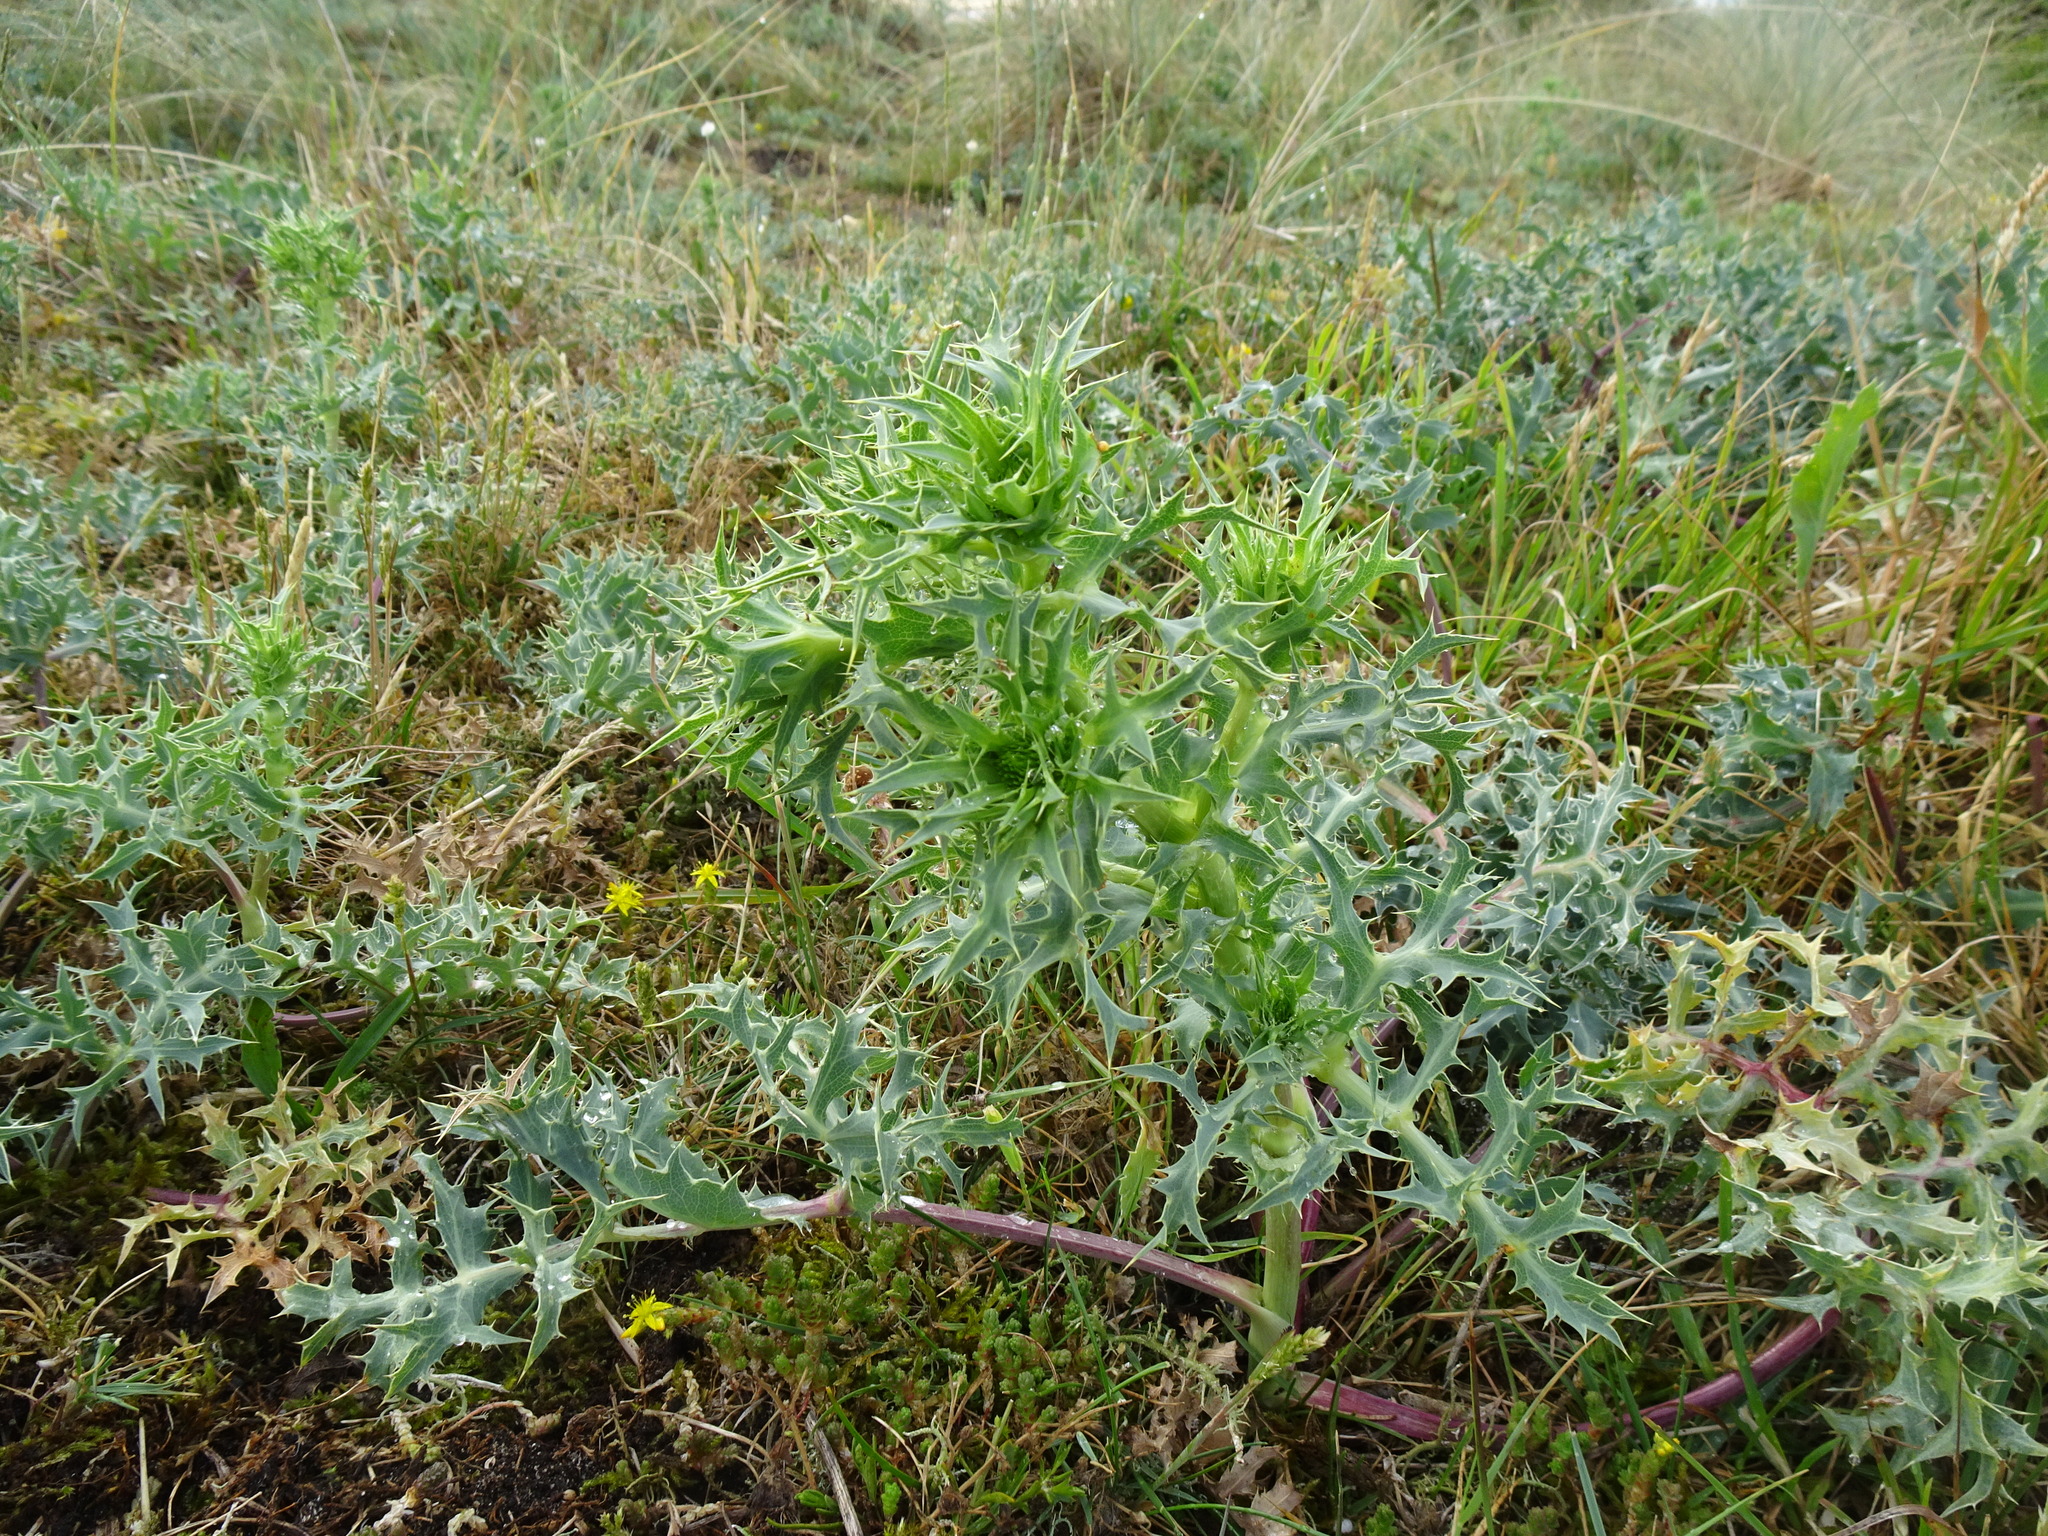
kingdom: Plantae
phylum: Tracheophyta
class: Magnoliopsida
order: Apiales
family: Apiaceae
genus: Eryngium
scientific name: Eryngium campestre
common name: Field eryngo
